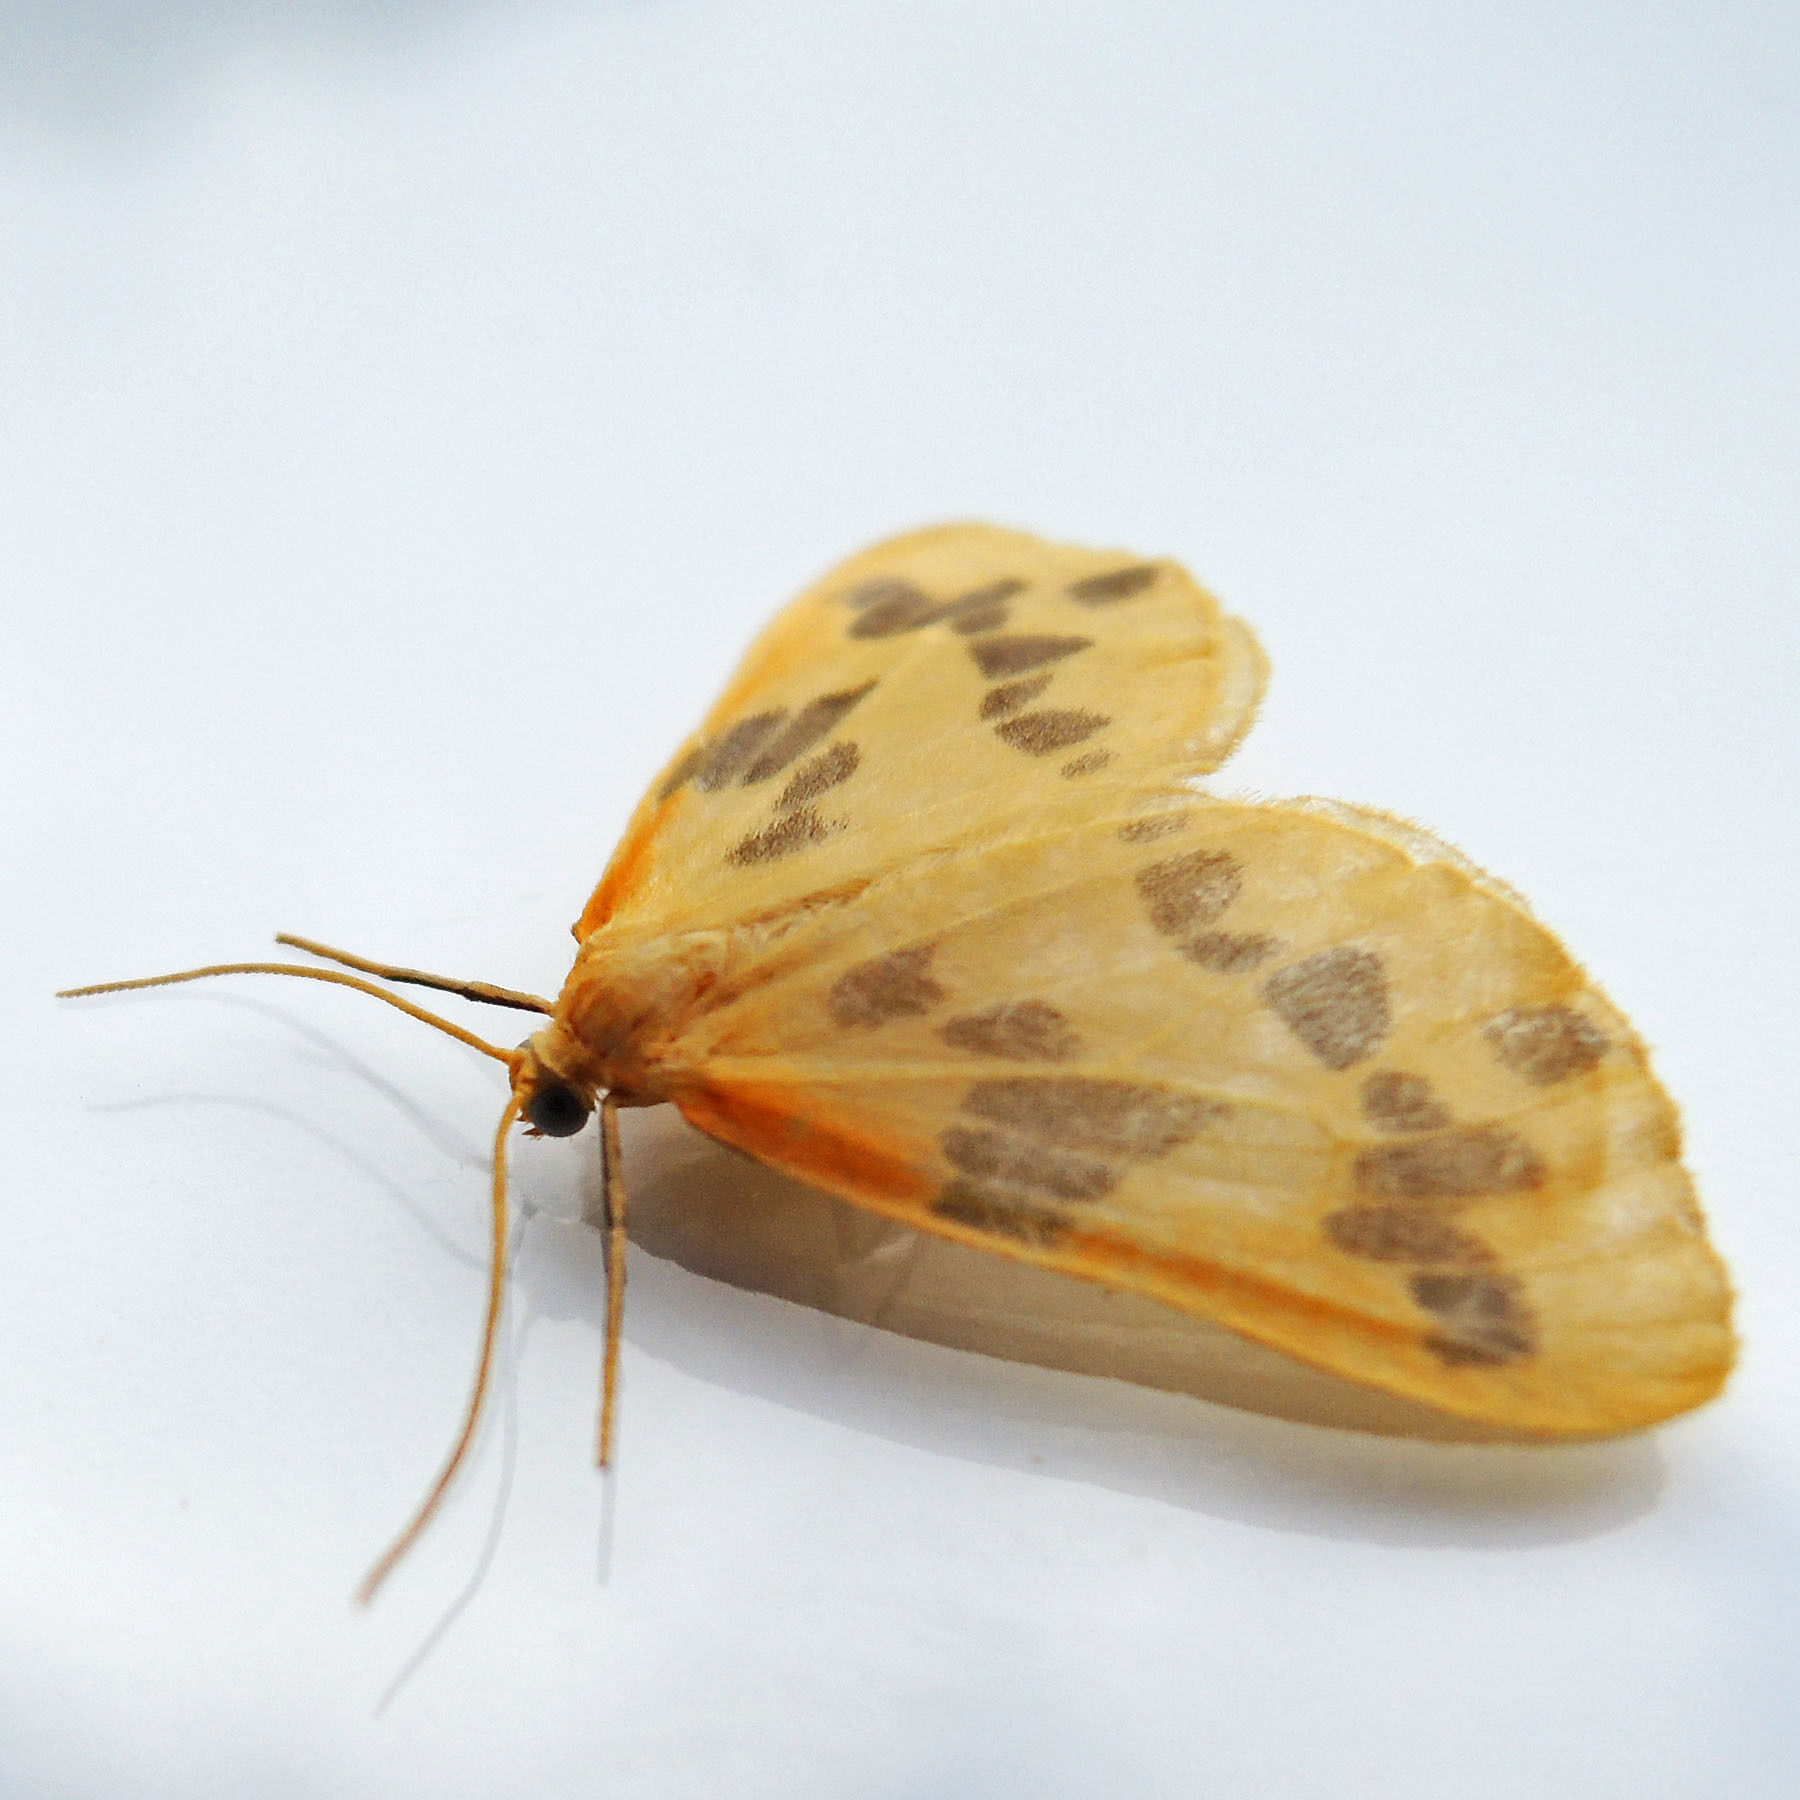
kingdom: Animalia
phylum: Arthropoda
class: Insecta
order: Lepidoptera
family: Geometridae
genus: Eubaphe
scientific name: Eubaphe mendica
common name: Beggar
